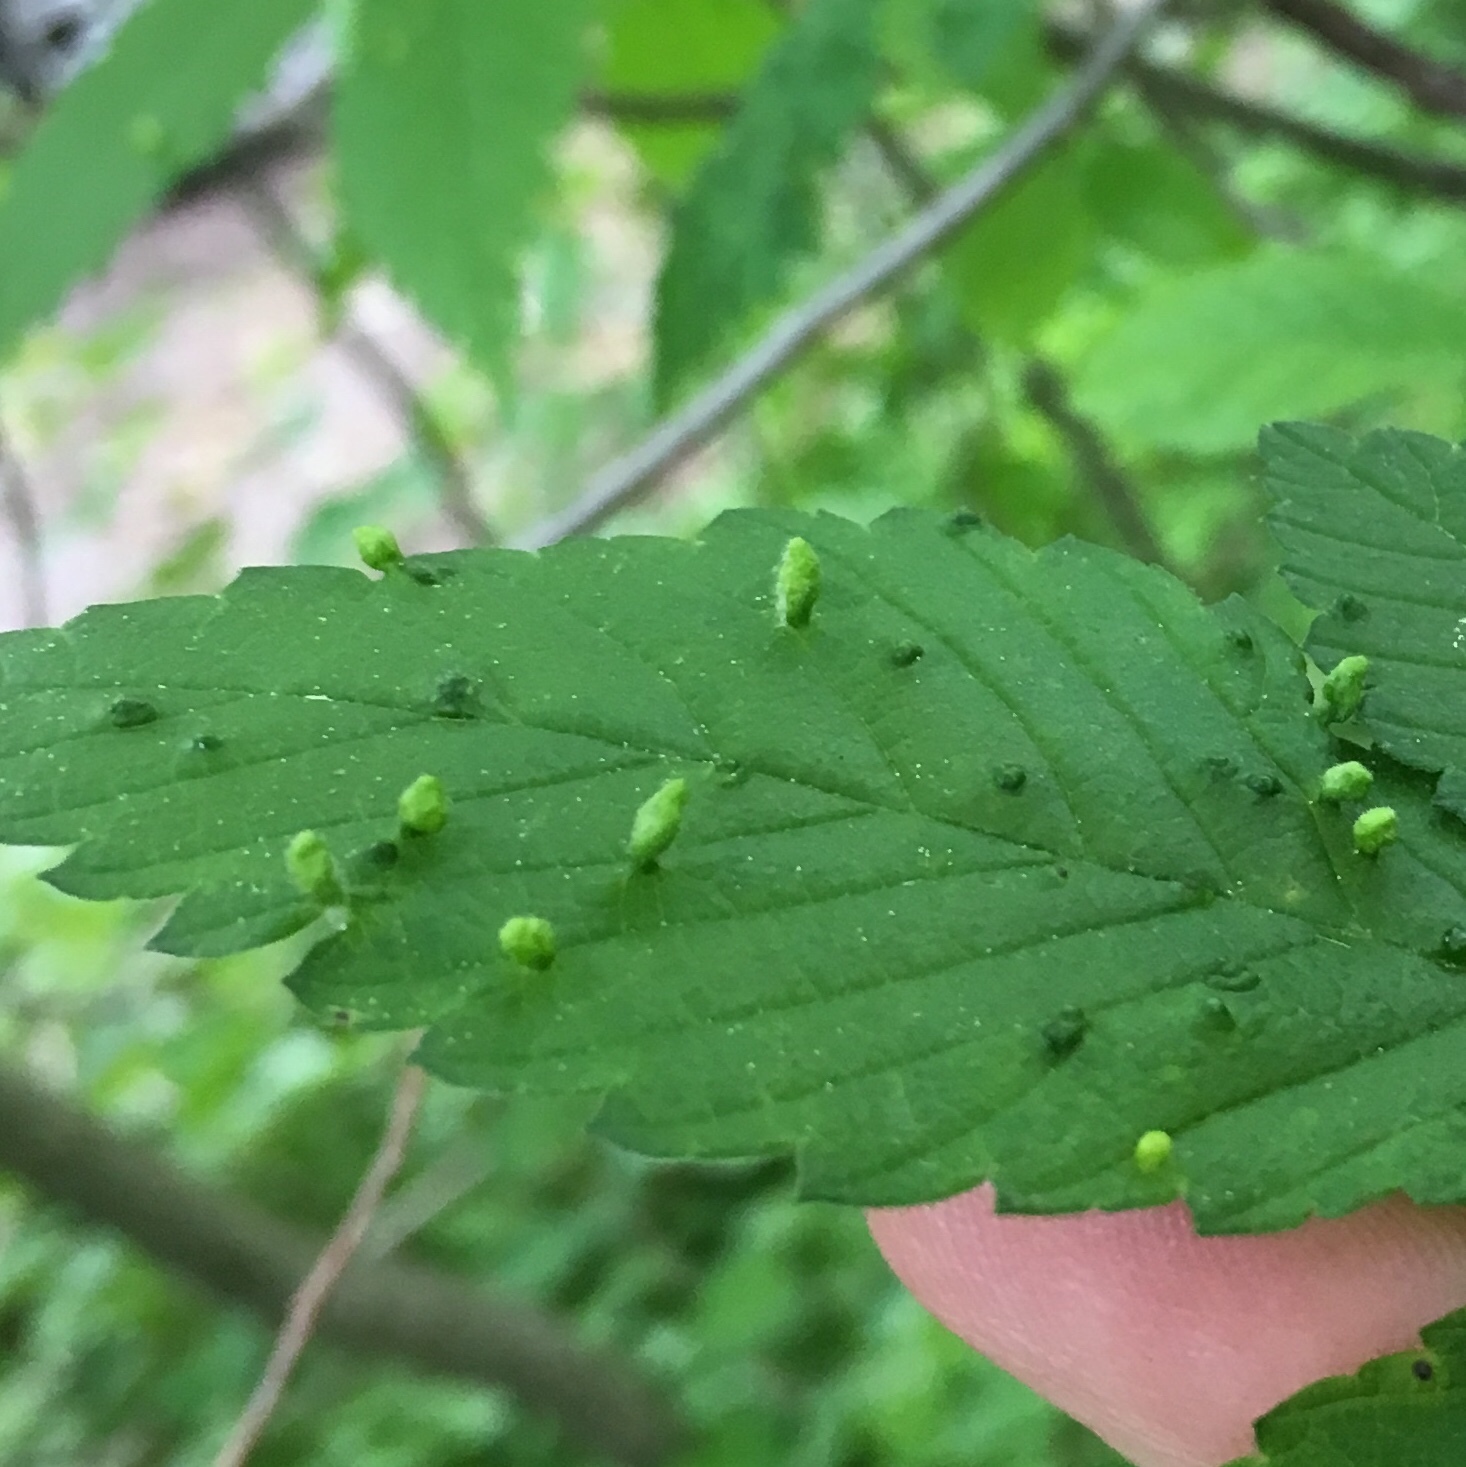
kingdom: Animalia
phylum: Arthropoda
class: Arachnida
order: Trombidiformes
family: Eriophyidae
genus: Aceria
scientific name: Aceria
